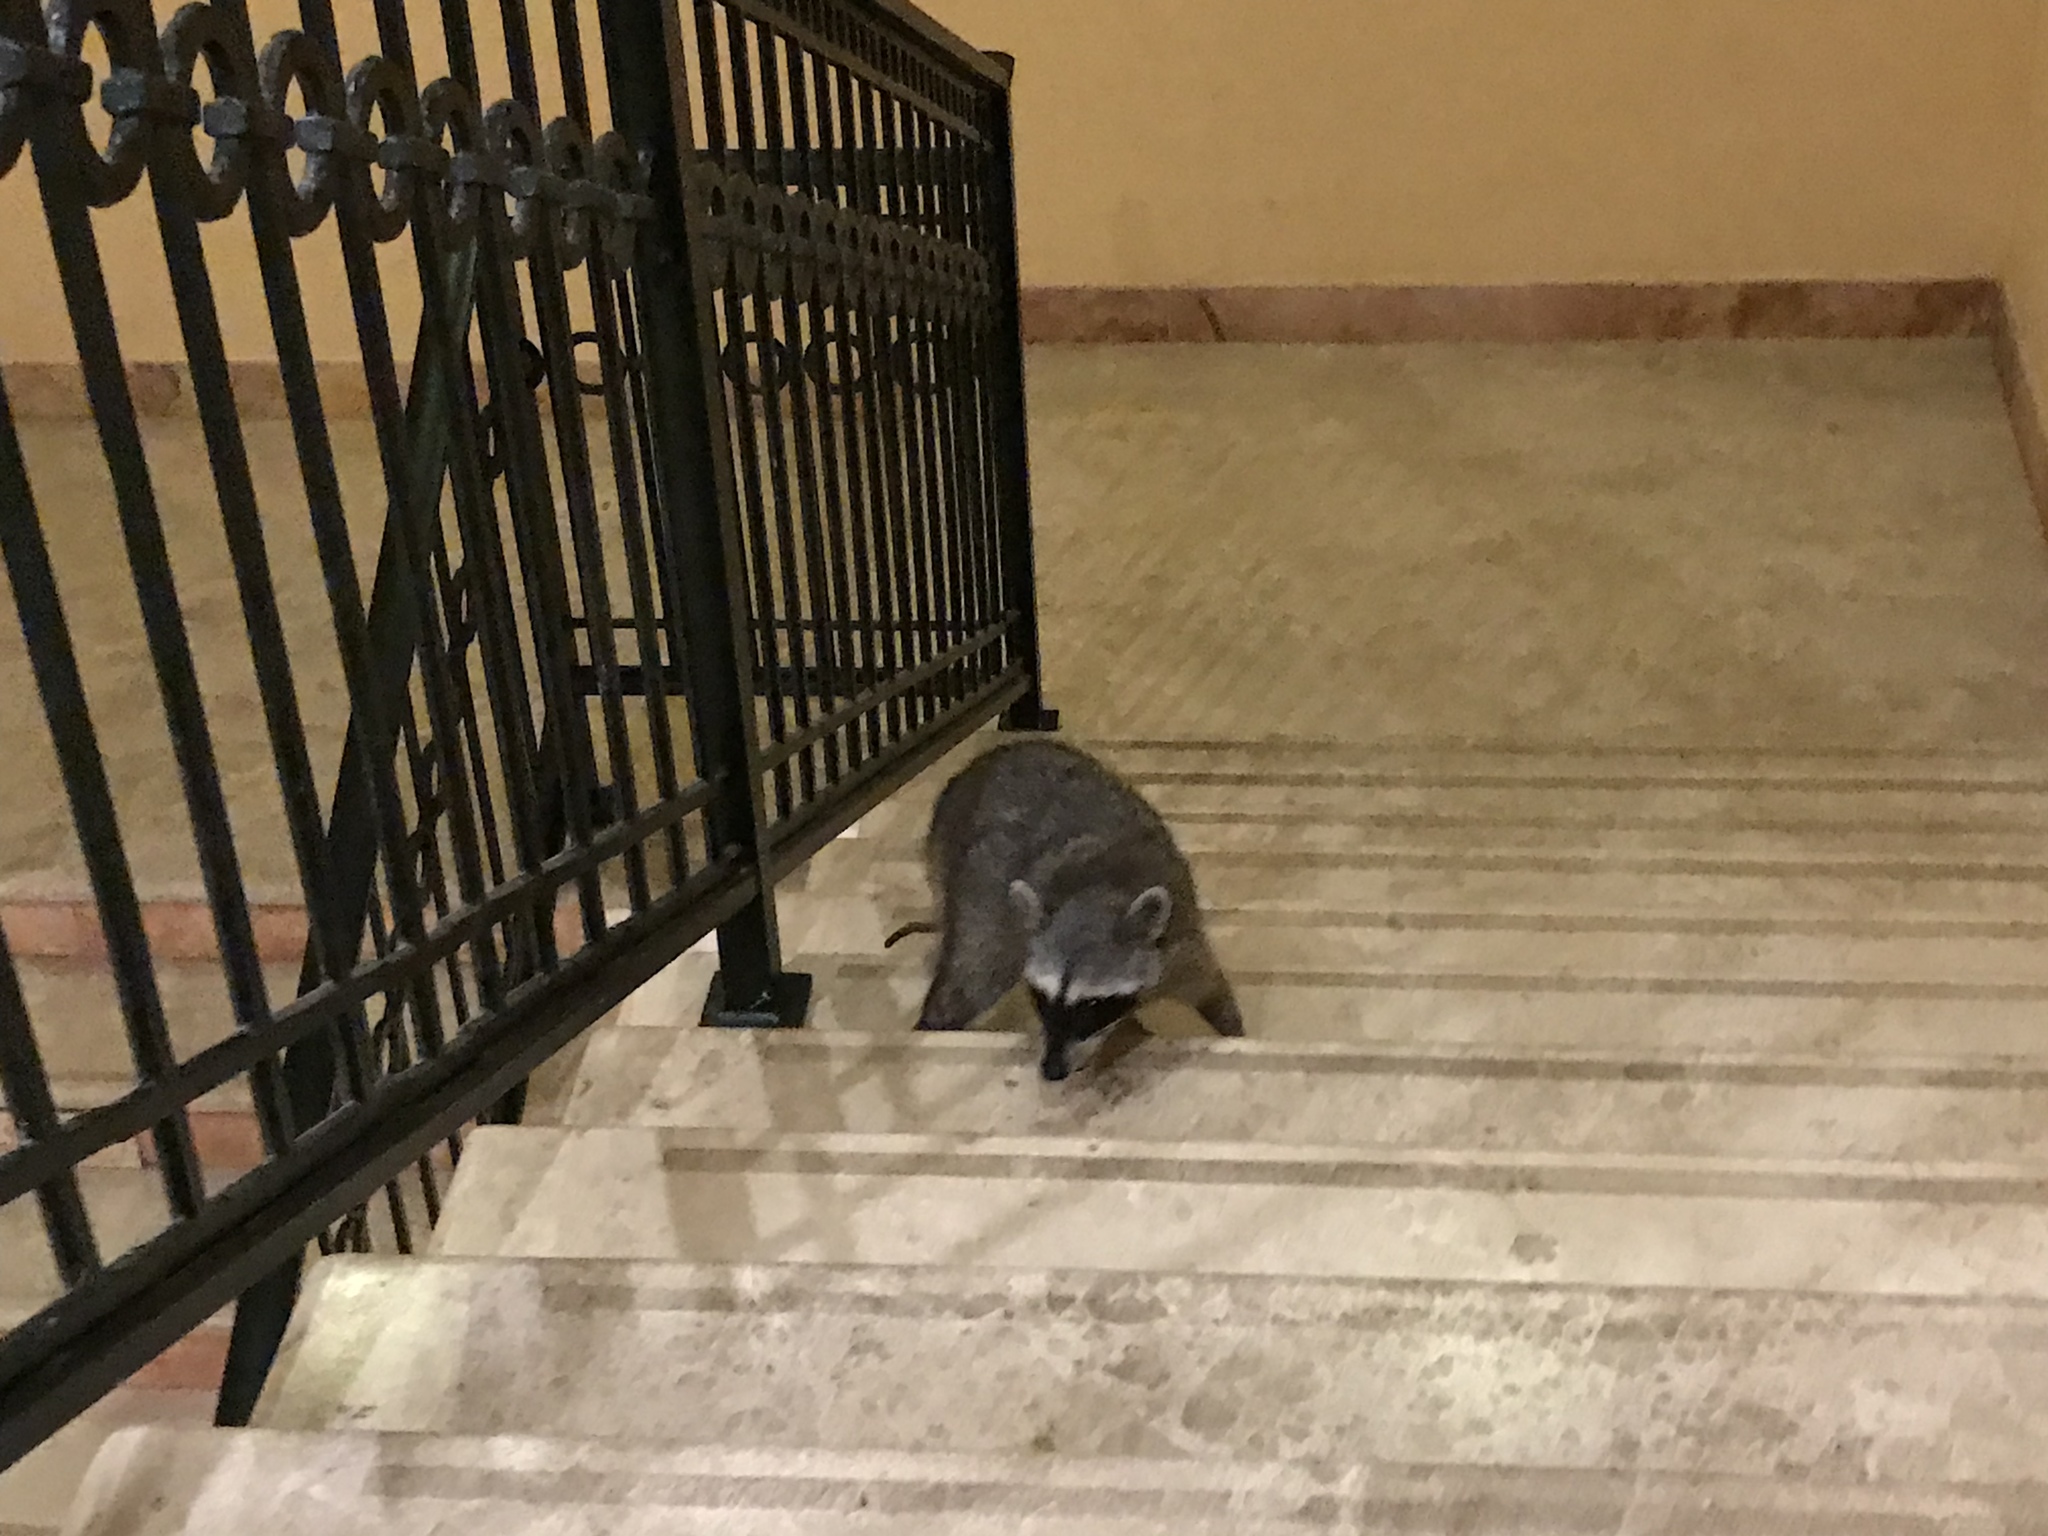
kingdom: Animalia
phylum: Chordata
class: Mammalia
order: Carnivora
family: Procyonidae
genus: Procyon
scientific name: Procyon lotor
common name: Raccoon
